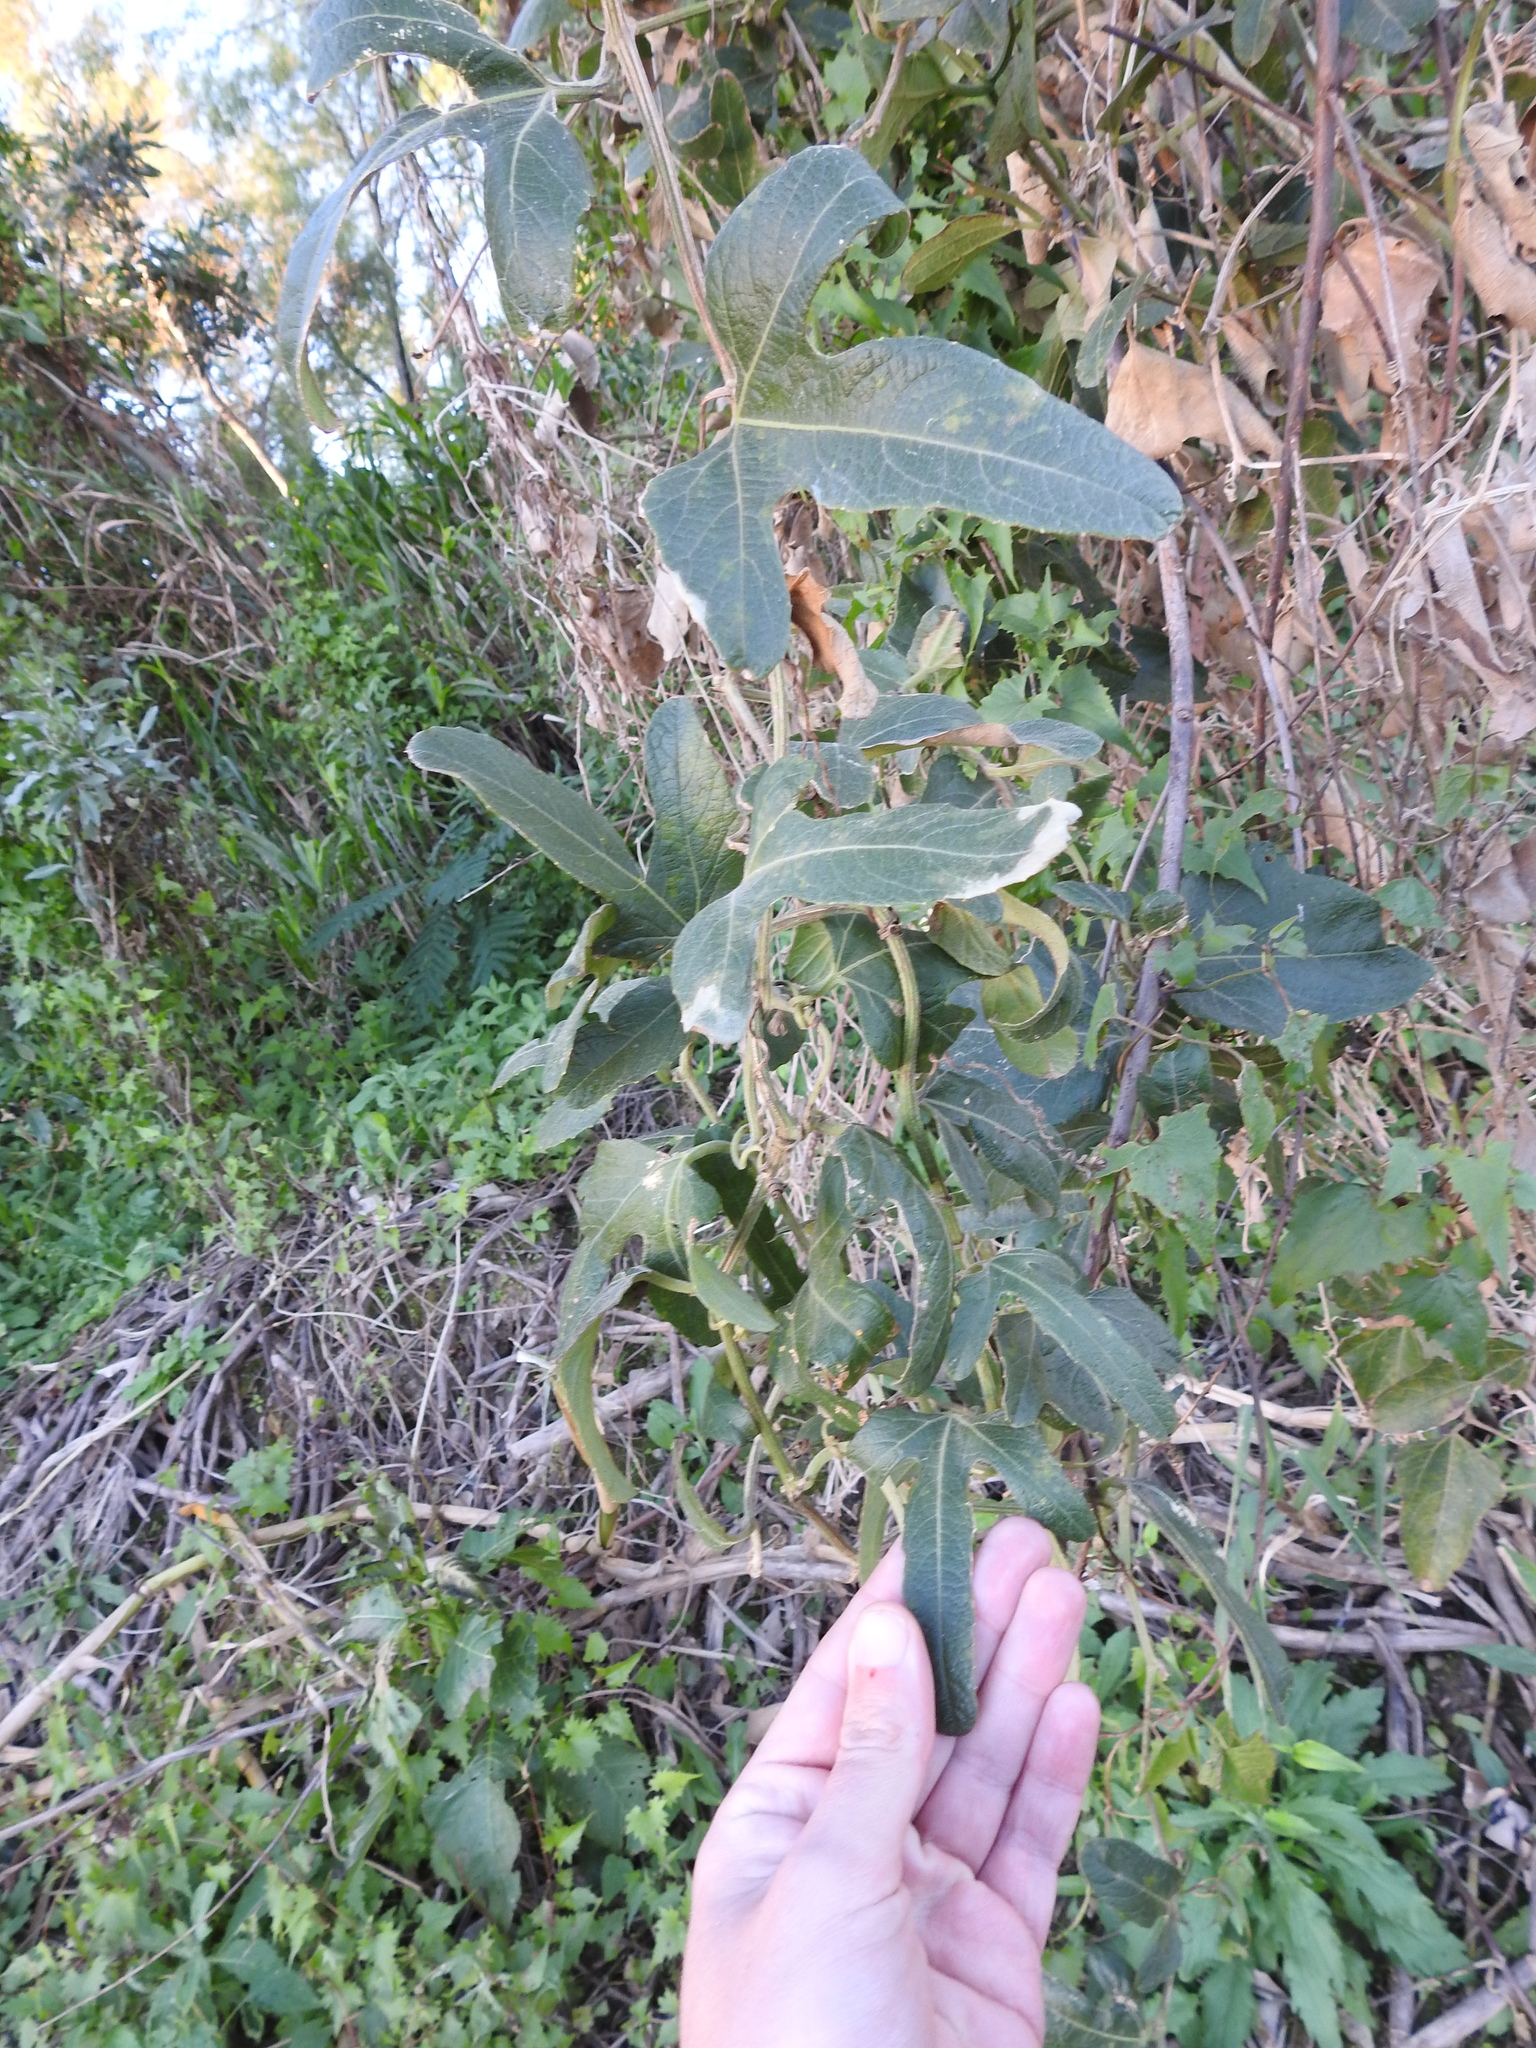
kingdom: Plantae
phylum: Tracheophyta
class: Magnoliopsida
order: Cucurbitales
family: Cucurbitaceae
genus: Cayaponia
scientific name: Cayaponia podantha
